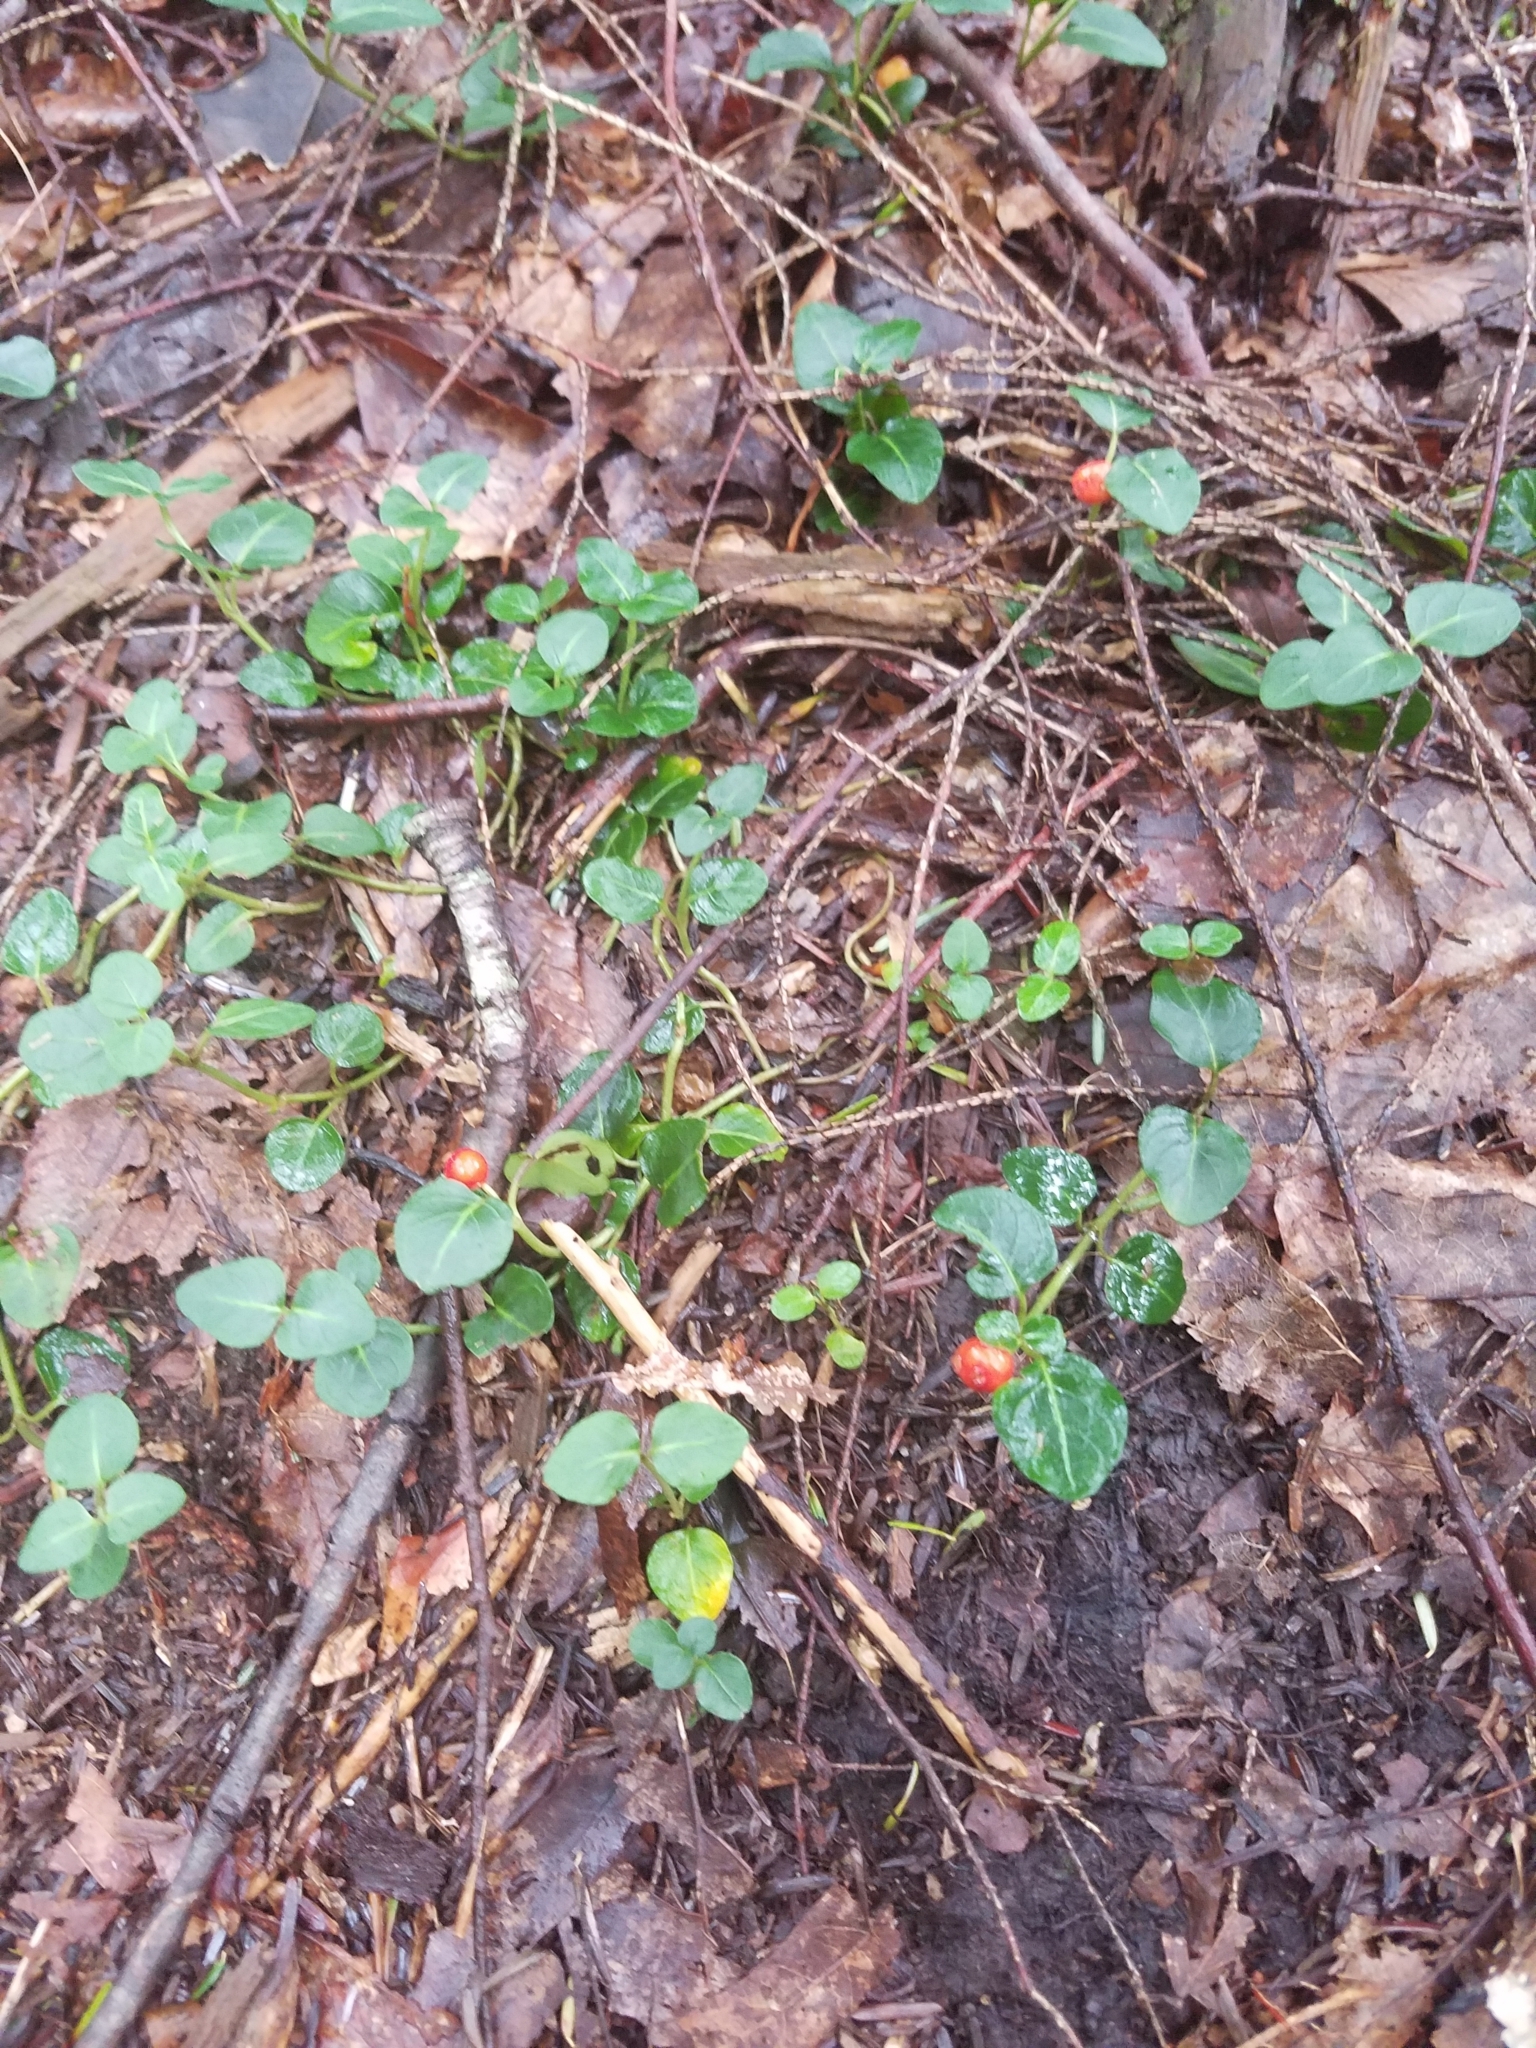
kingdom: Plantae
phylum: Tracheophyta
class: Magnoliopsida
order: Gentianales
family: Rubiaceae
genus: Mitchella
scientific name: Mitchella repens
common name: Partridge-berry
